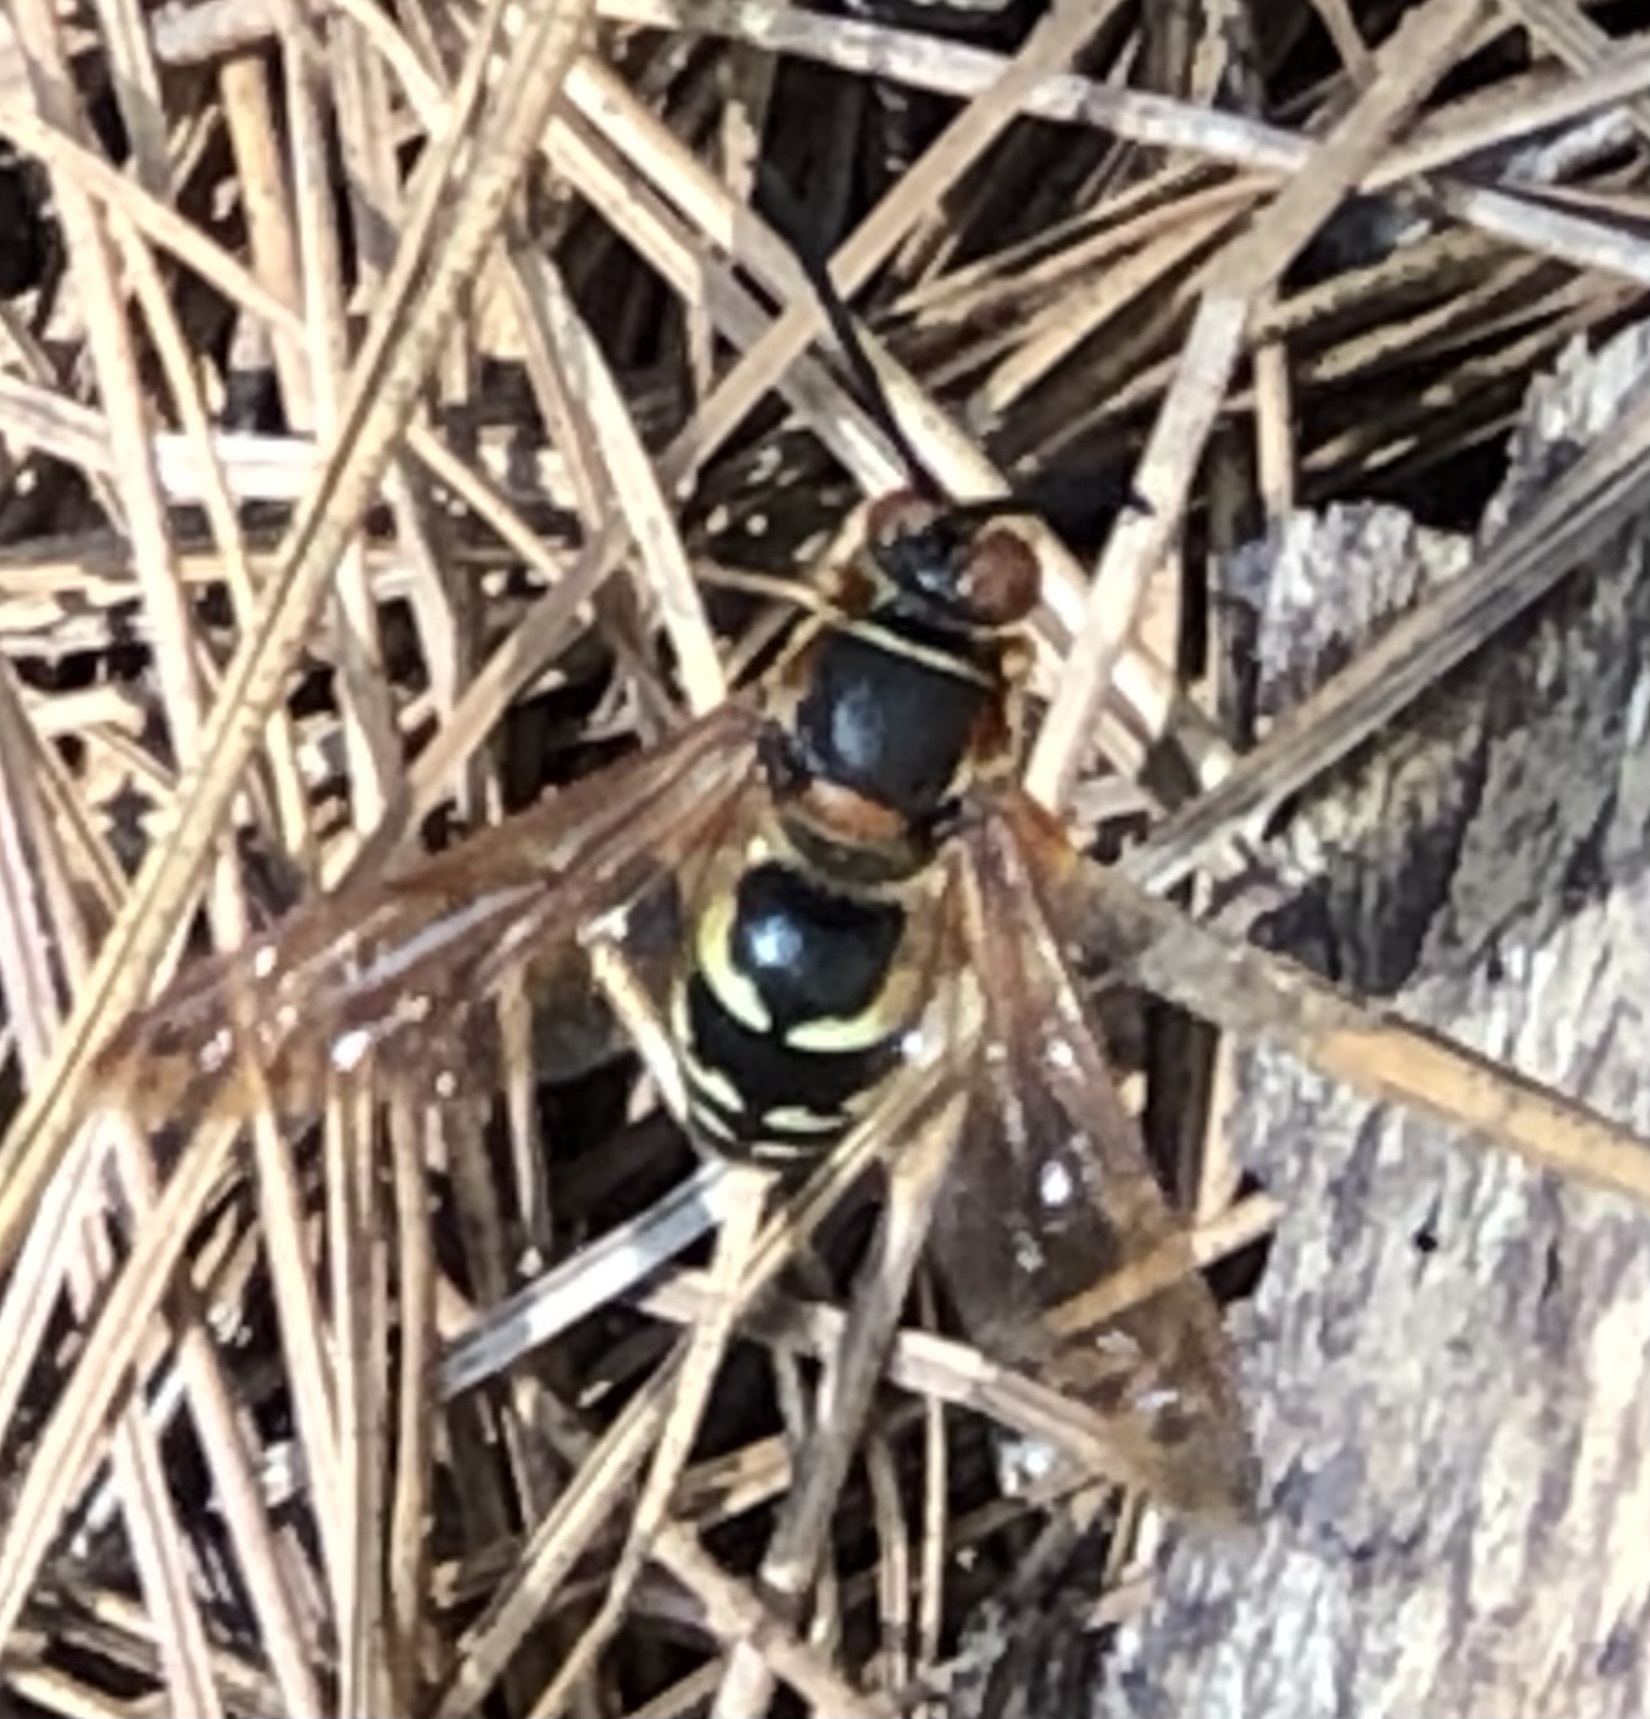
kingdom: Animalia
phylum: Arthropoda
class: Insecta
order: Hymenoptera
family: Crabronidae
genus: Sphecius
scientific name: Sphecius speciosus
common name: Cicada killer
